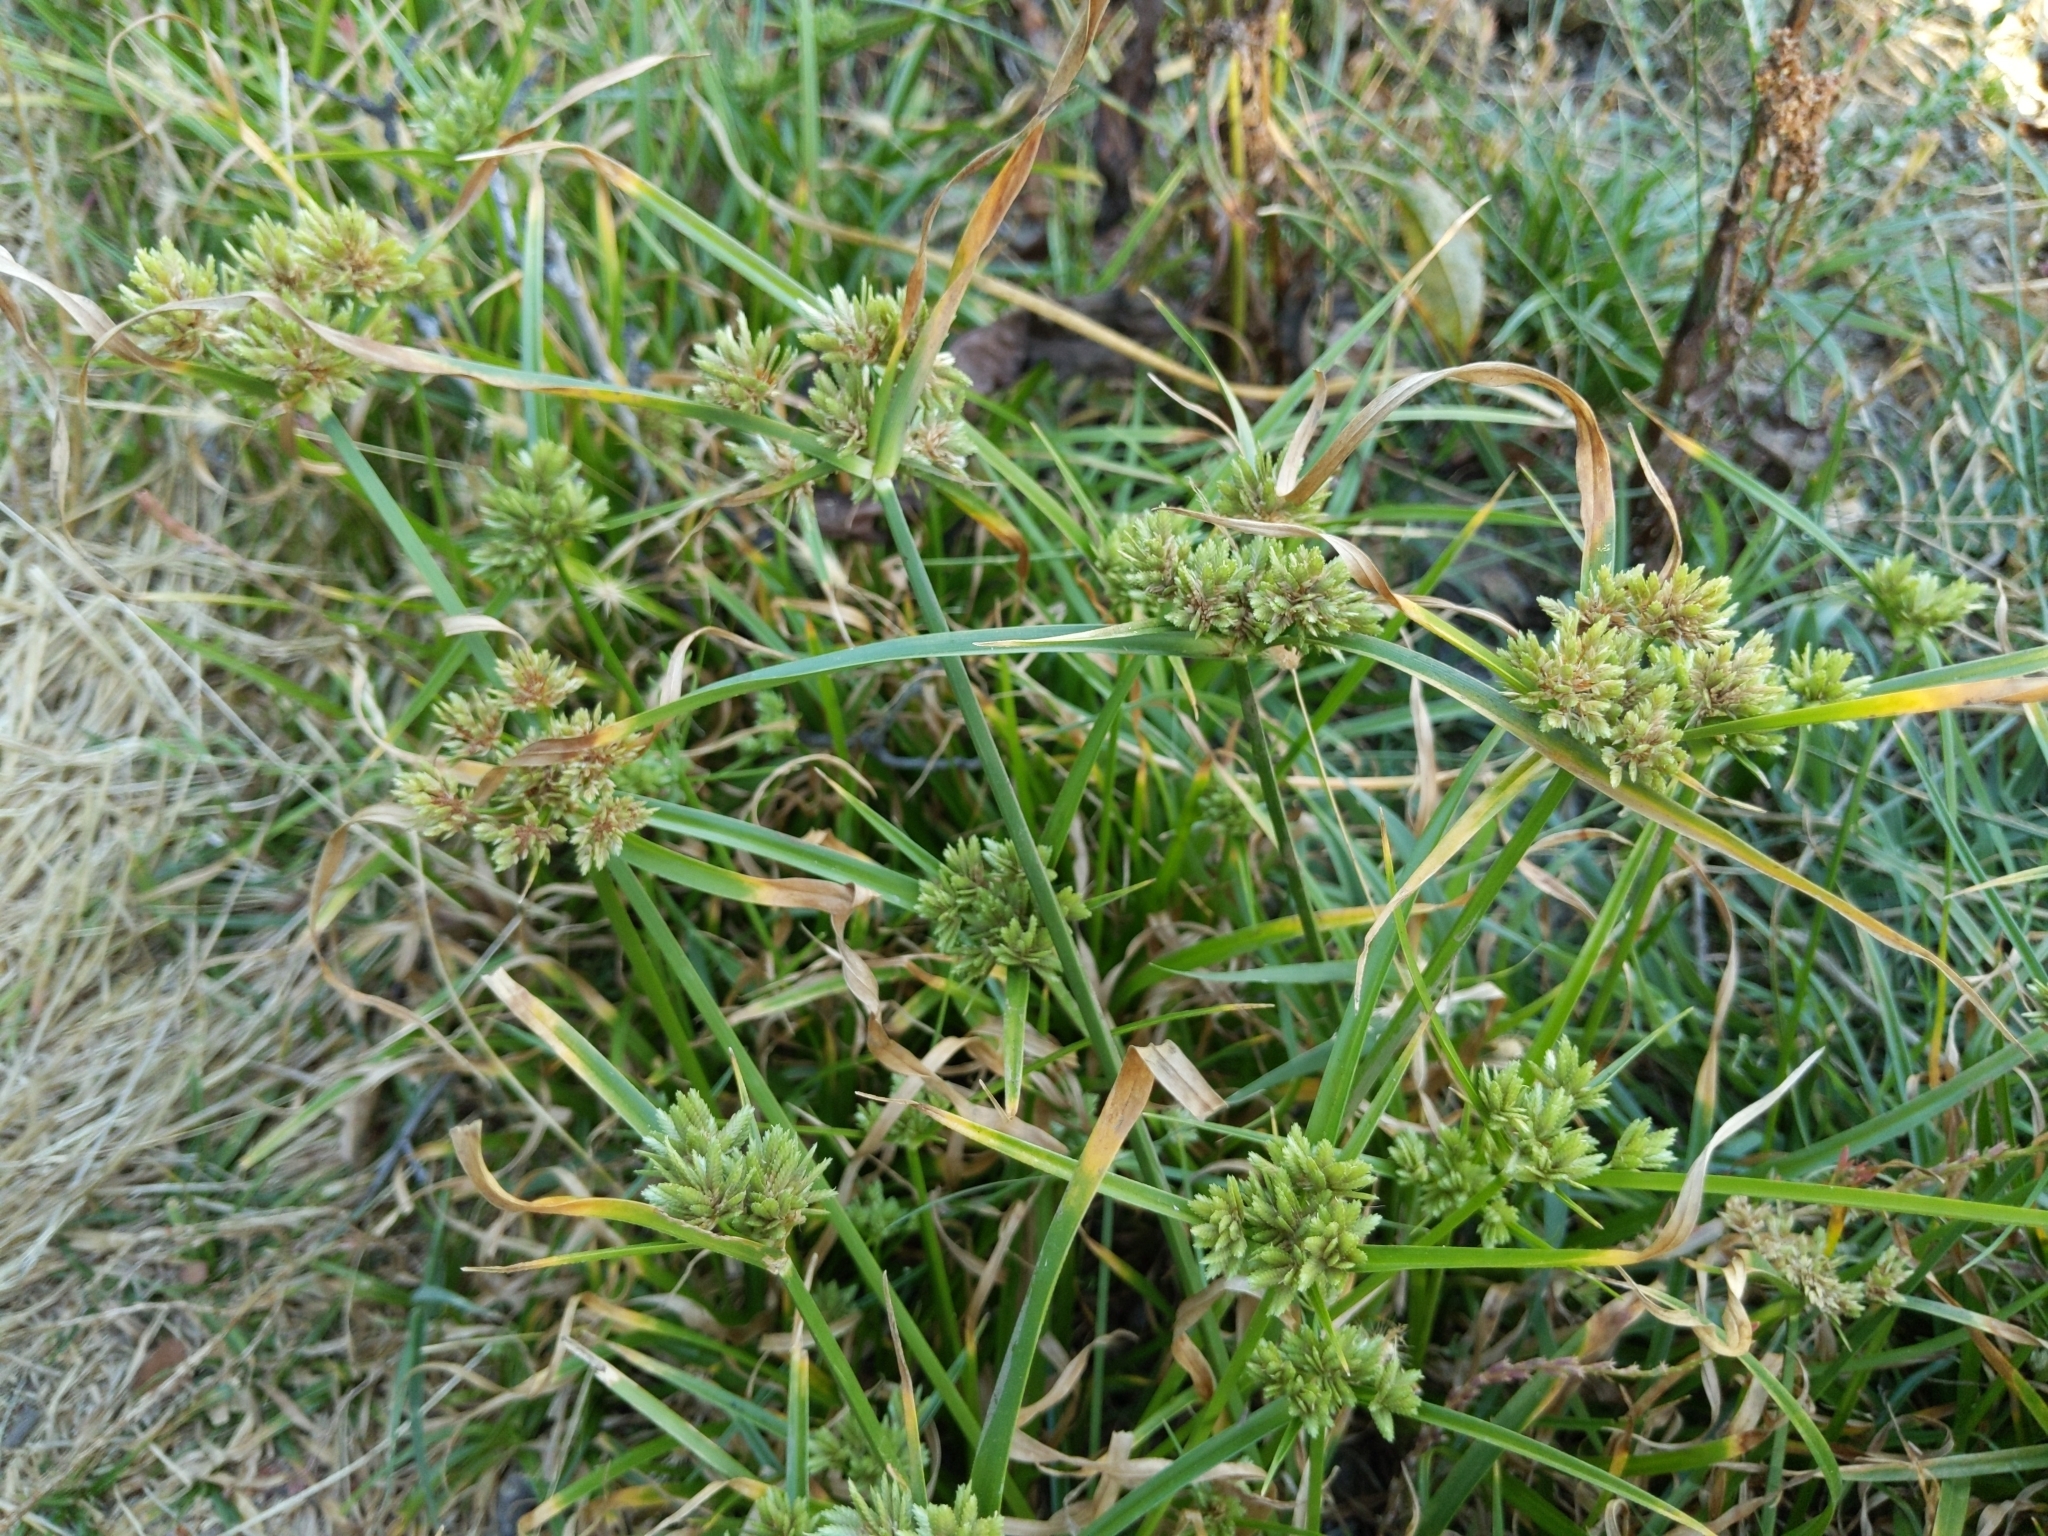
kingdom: Plantae
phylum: Tracheophyta
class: Liliopsida
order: Poales
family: Cyperaceae
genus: Cyperus
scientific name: Cyperus eragrostis
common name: Tall flatsedge
